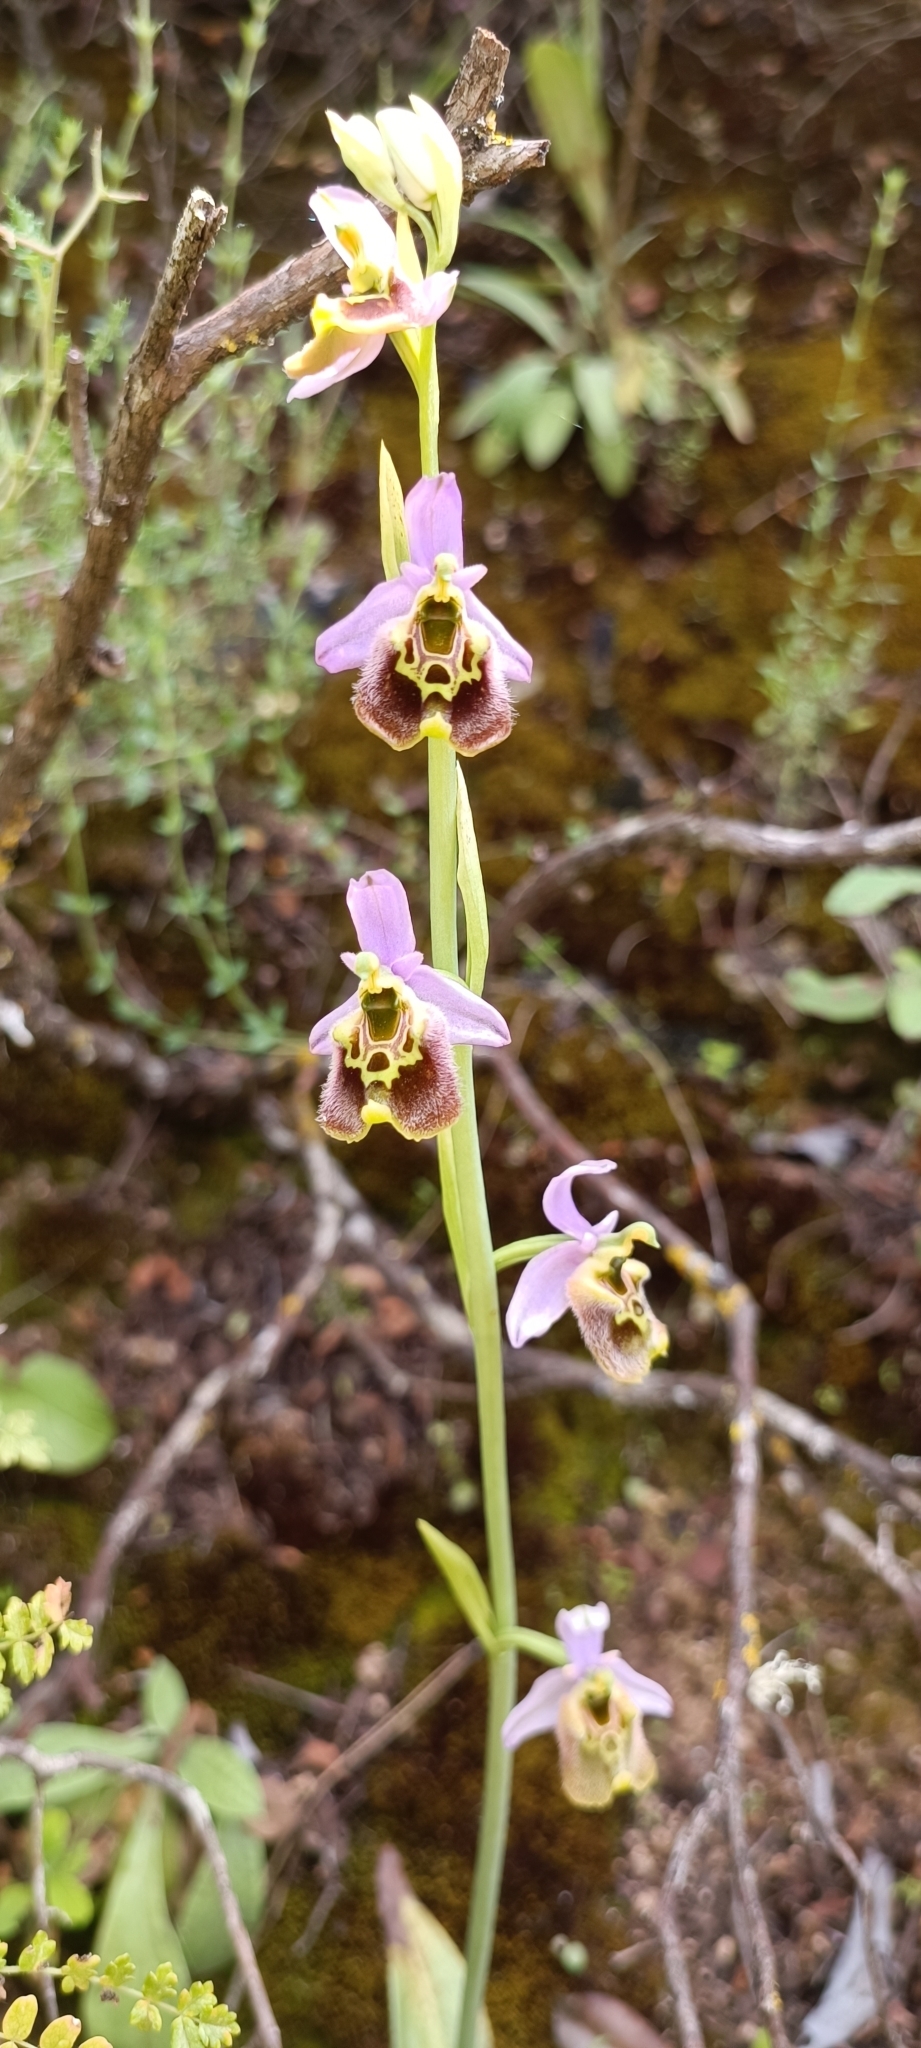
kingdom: Plantae
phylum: Tracheophyta
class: Liliopsida
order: Asparagales
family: Orchidaceae
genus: Ophrys
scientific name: Ophrys holosericea
